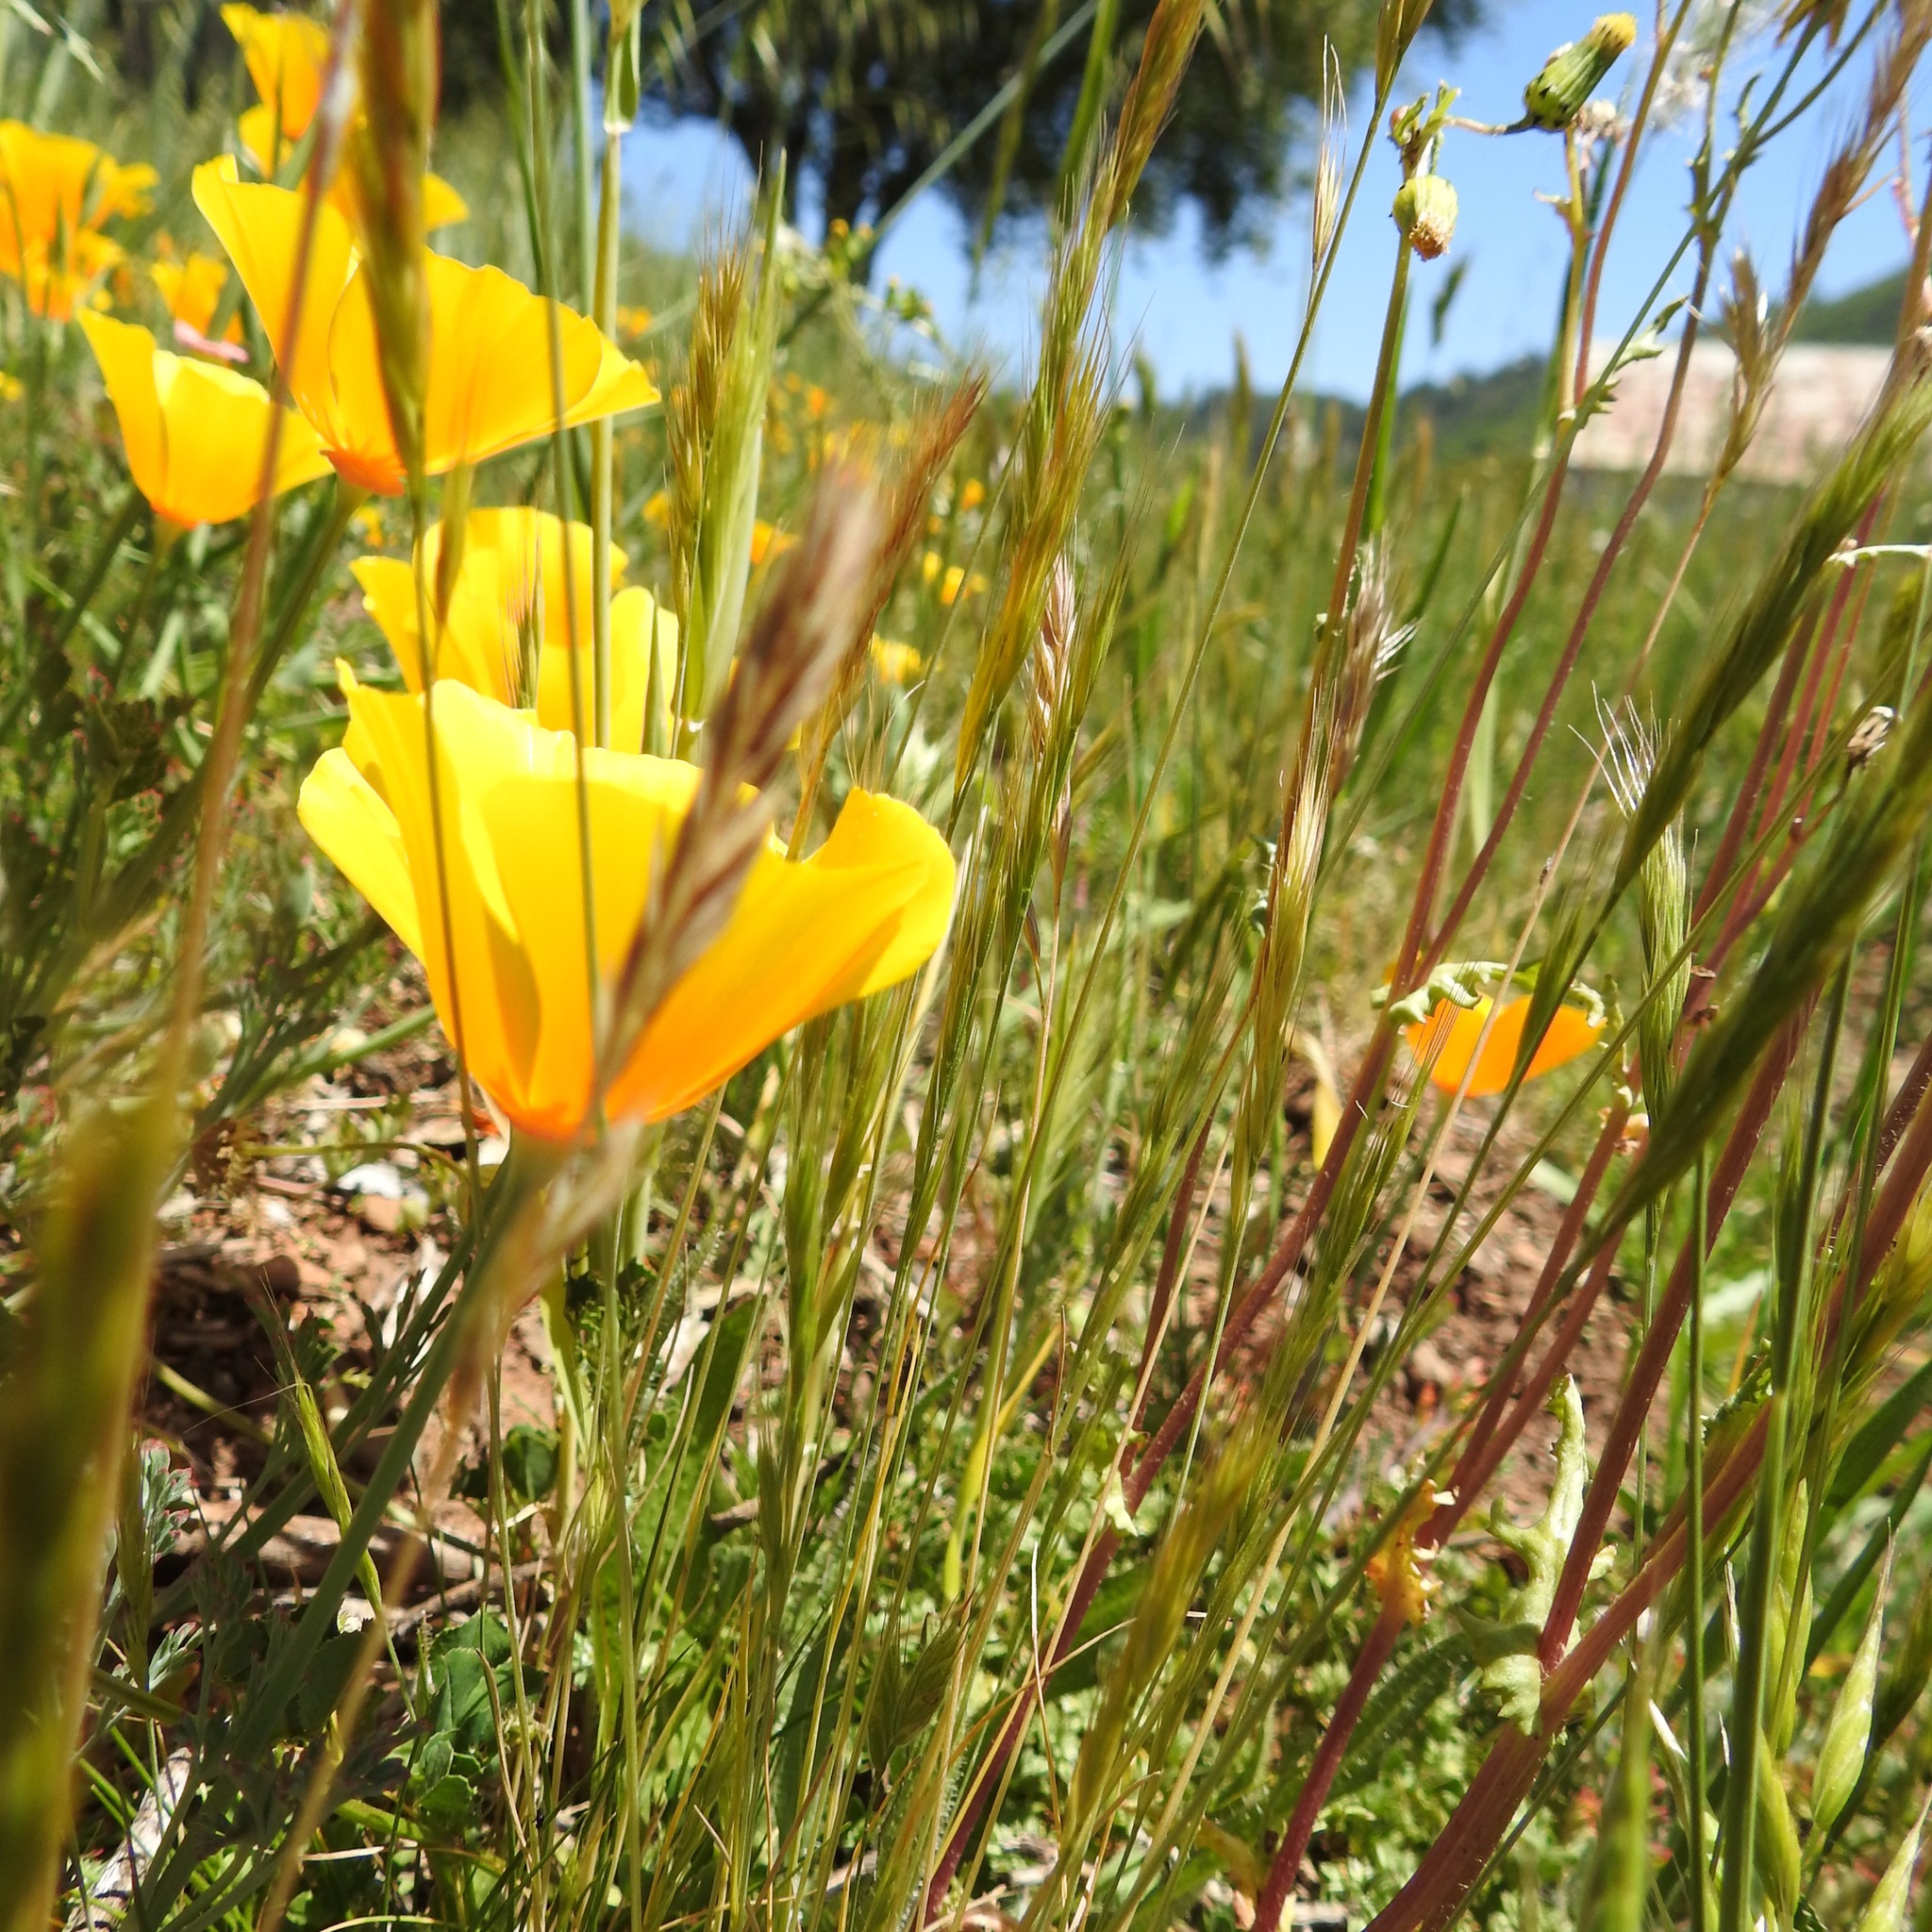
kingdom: Plantae
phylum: Tracheophyta
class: Magnoliopsida
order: Ranunculales
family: Papaveraceae
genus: Eschscholzia
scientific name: Eschscholzia californica
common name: California poppy
